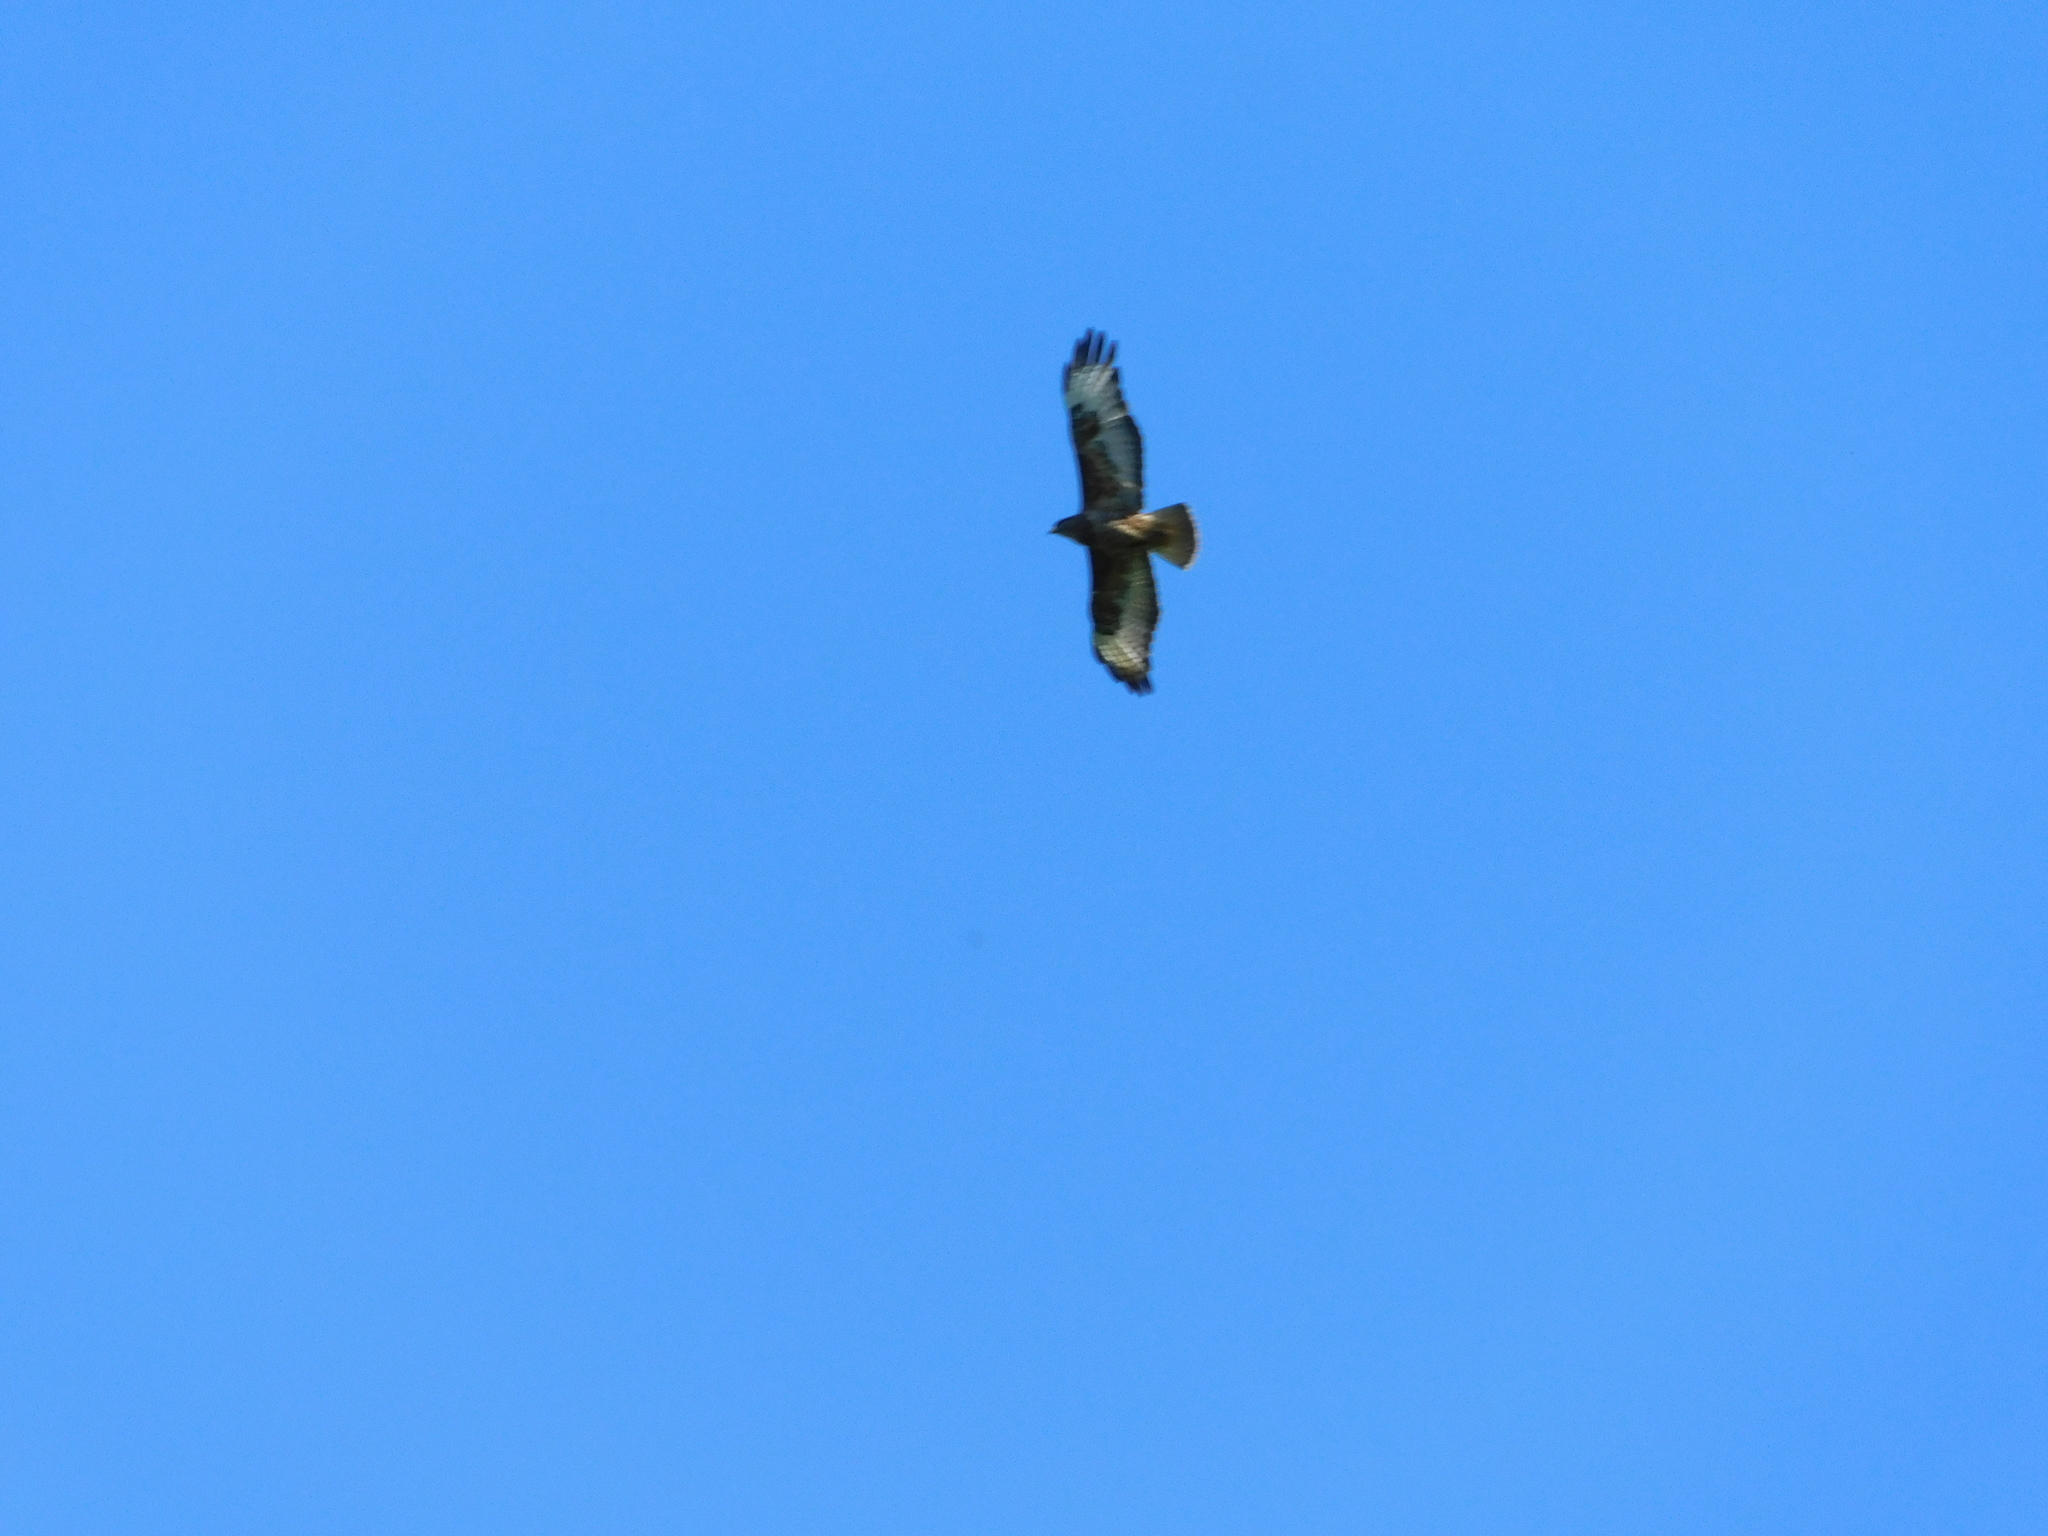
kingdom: Animalia
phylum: Chordata
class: Aves
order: Accipitriformes
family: Accipitridae
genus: Buteo
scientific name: Buteo buteo
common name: Common buzzard
